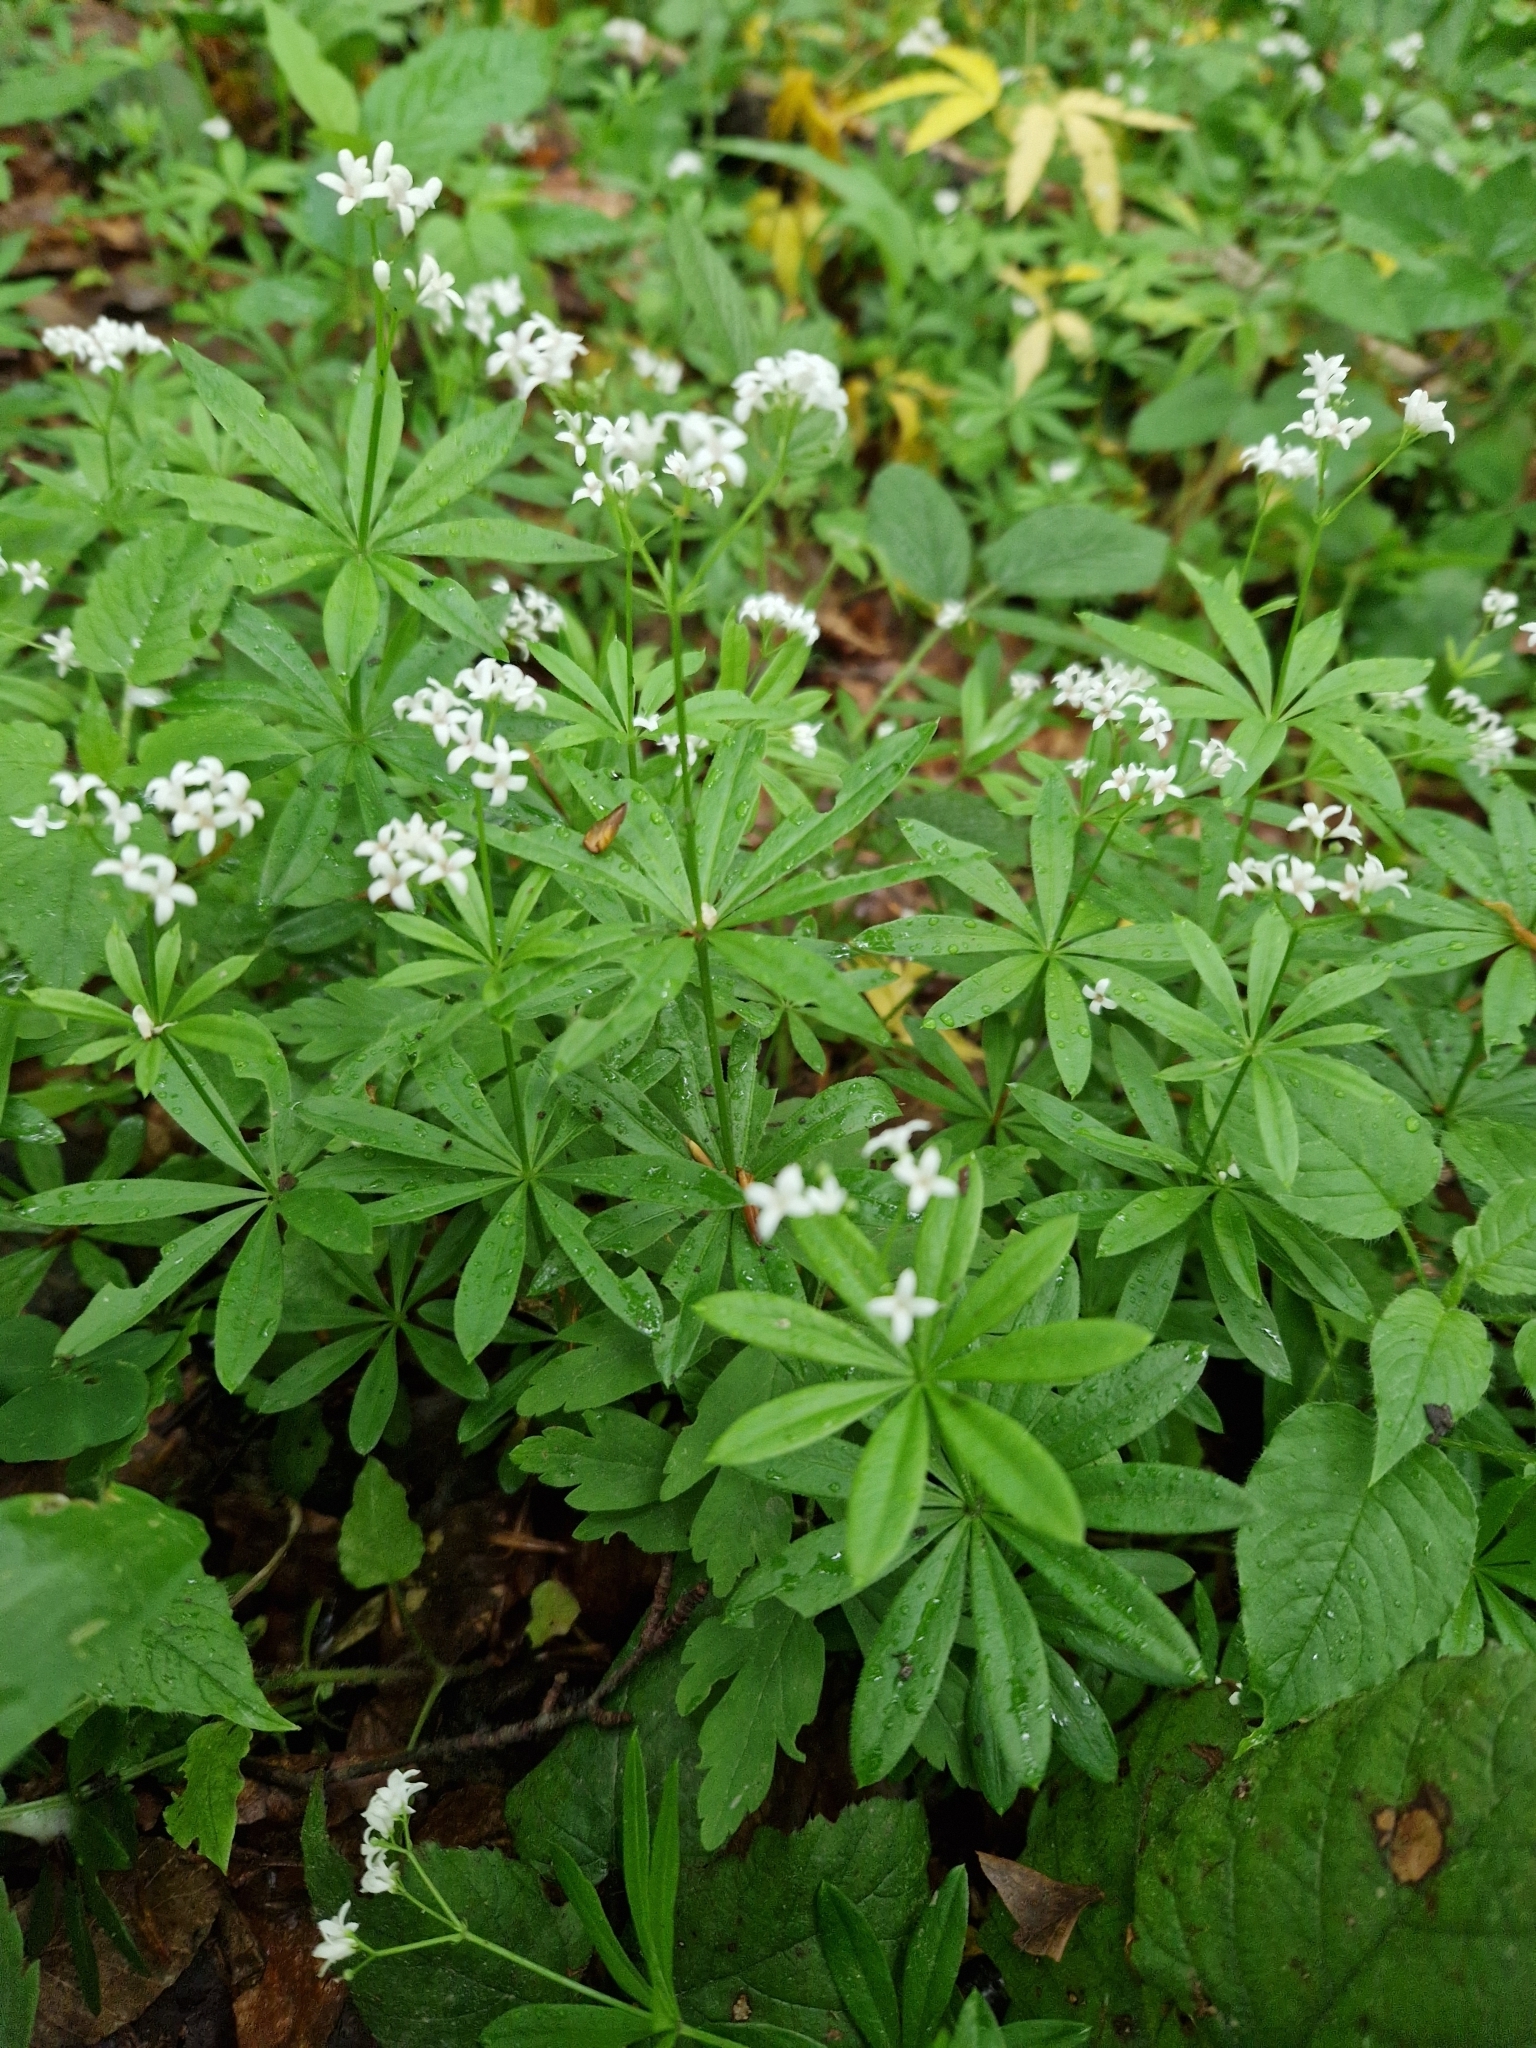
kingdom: Plantae
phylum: Tracheophyta
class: Magnoliopsida
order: Gentianales
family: Rubiaceae
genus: Galium
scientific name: Galium odoratum
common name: Sweet woodruff
